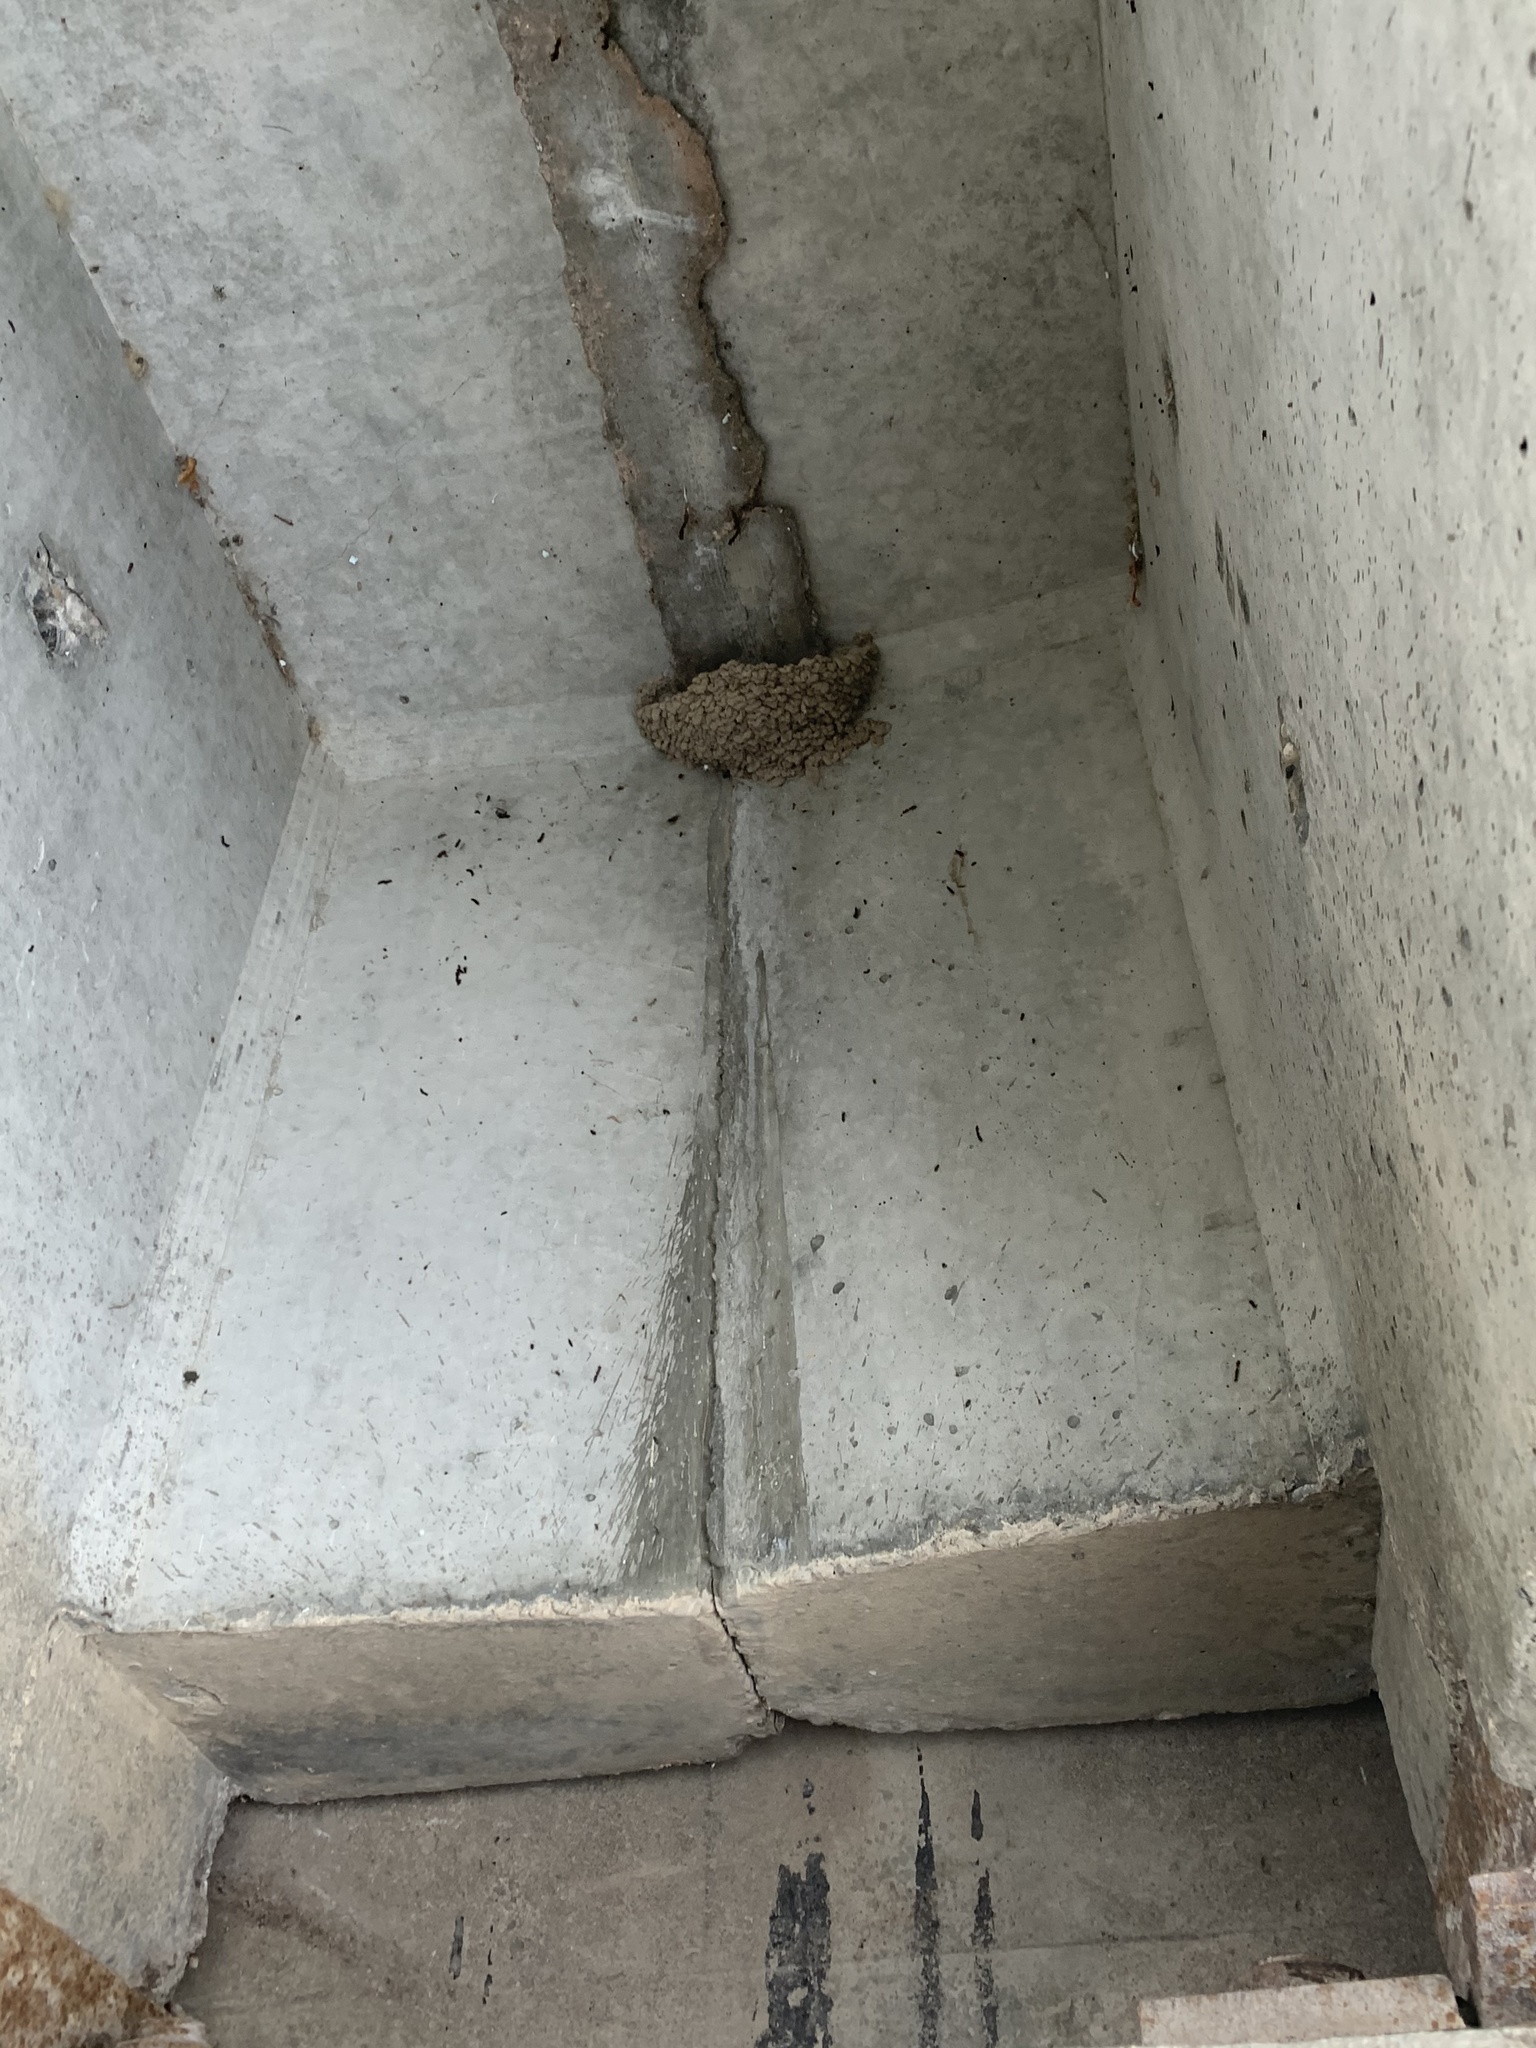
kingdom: Animalia
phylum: Chordata
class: Aves
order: Passeriformes
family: Hirundinidae
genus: Petrochelidon
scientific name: Petrochelidon pyrrhonota
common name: American cliff swallow
